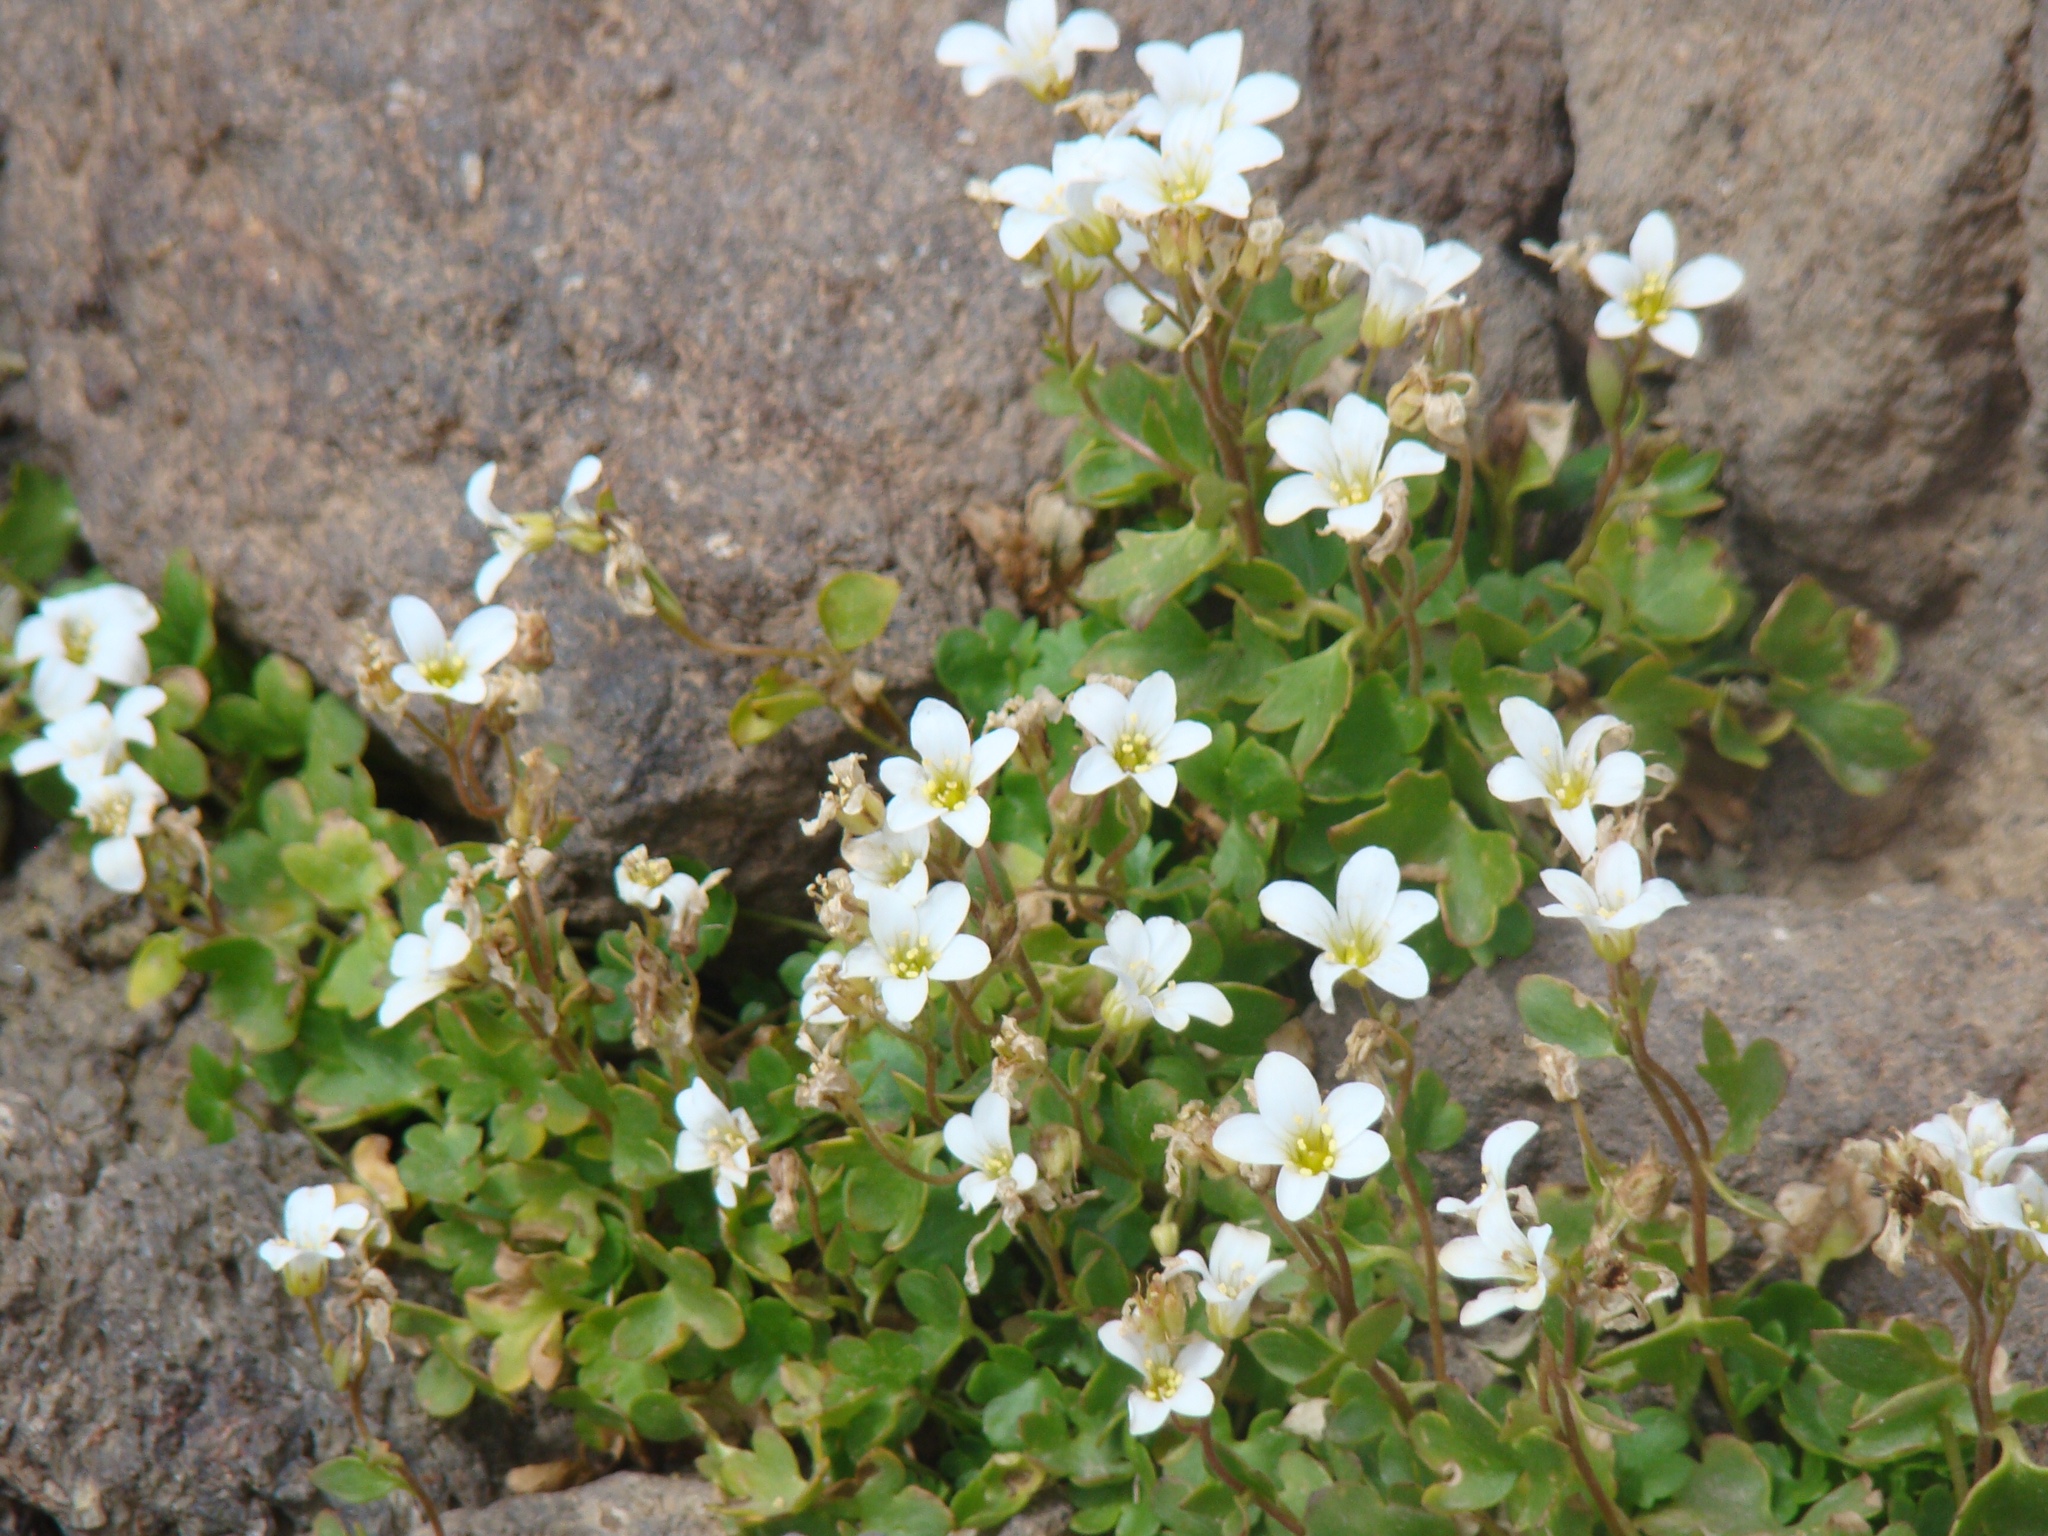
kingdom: Plantae
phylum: Tracheophyta
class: Magnoliopsida
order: Saxifragales
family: Saxifragaceae
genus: Saxifraga
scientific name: Saxifraga sibirica
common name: Siberian saxifrage
